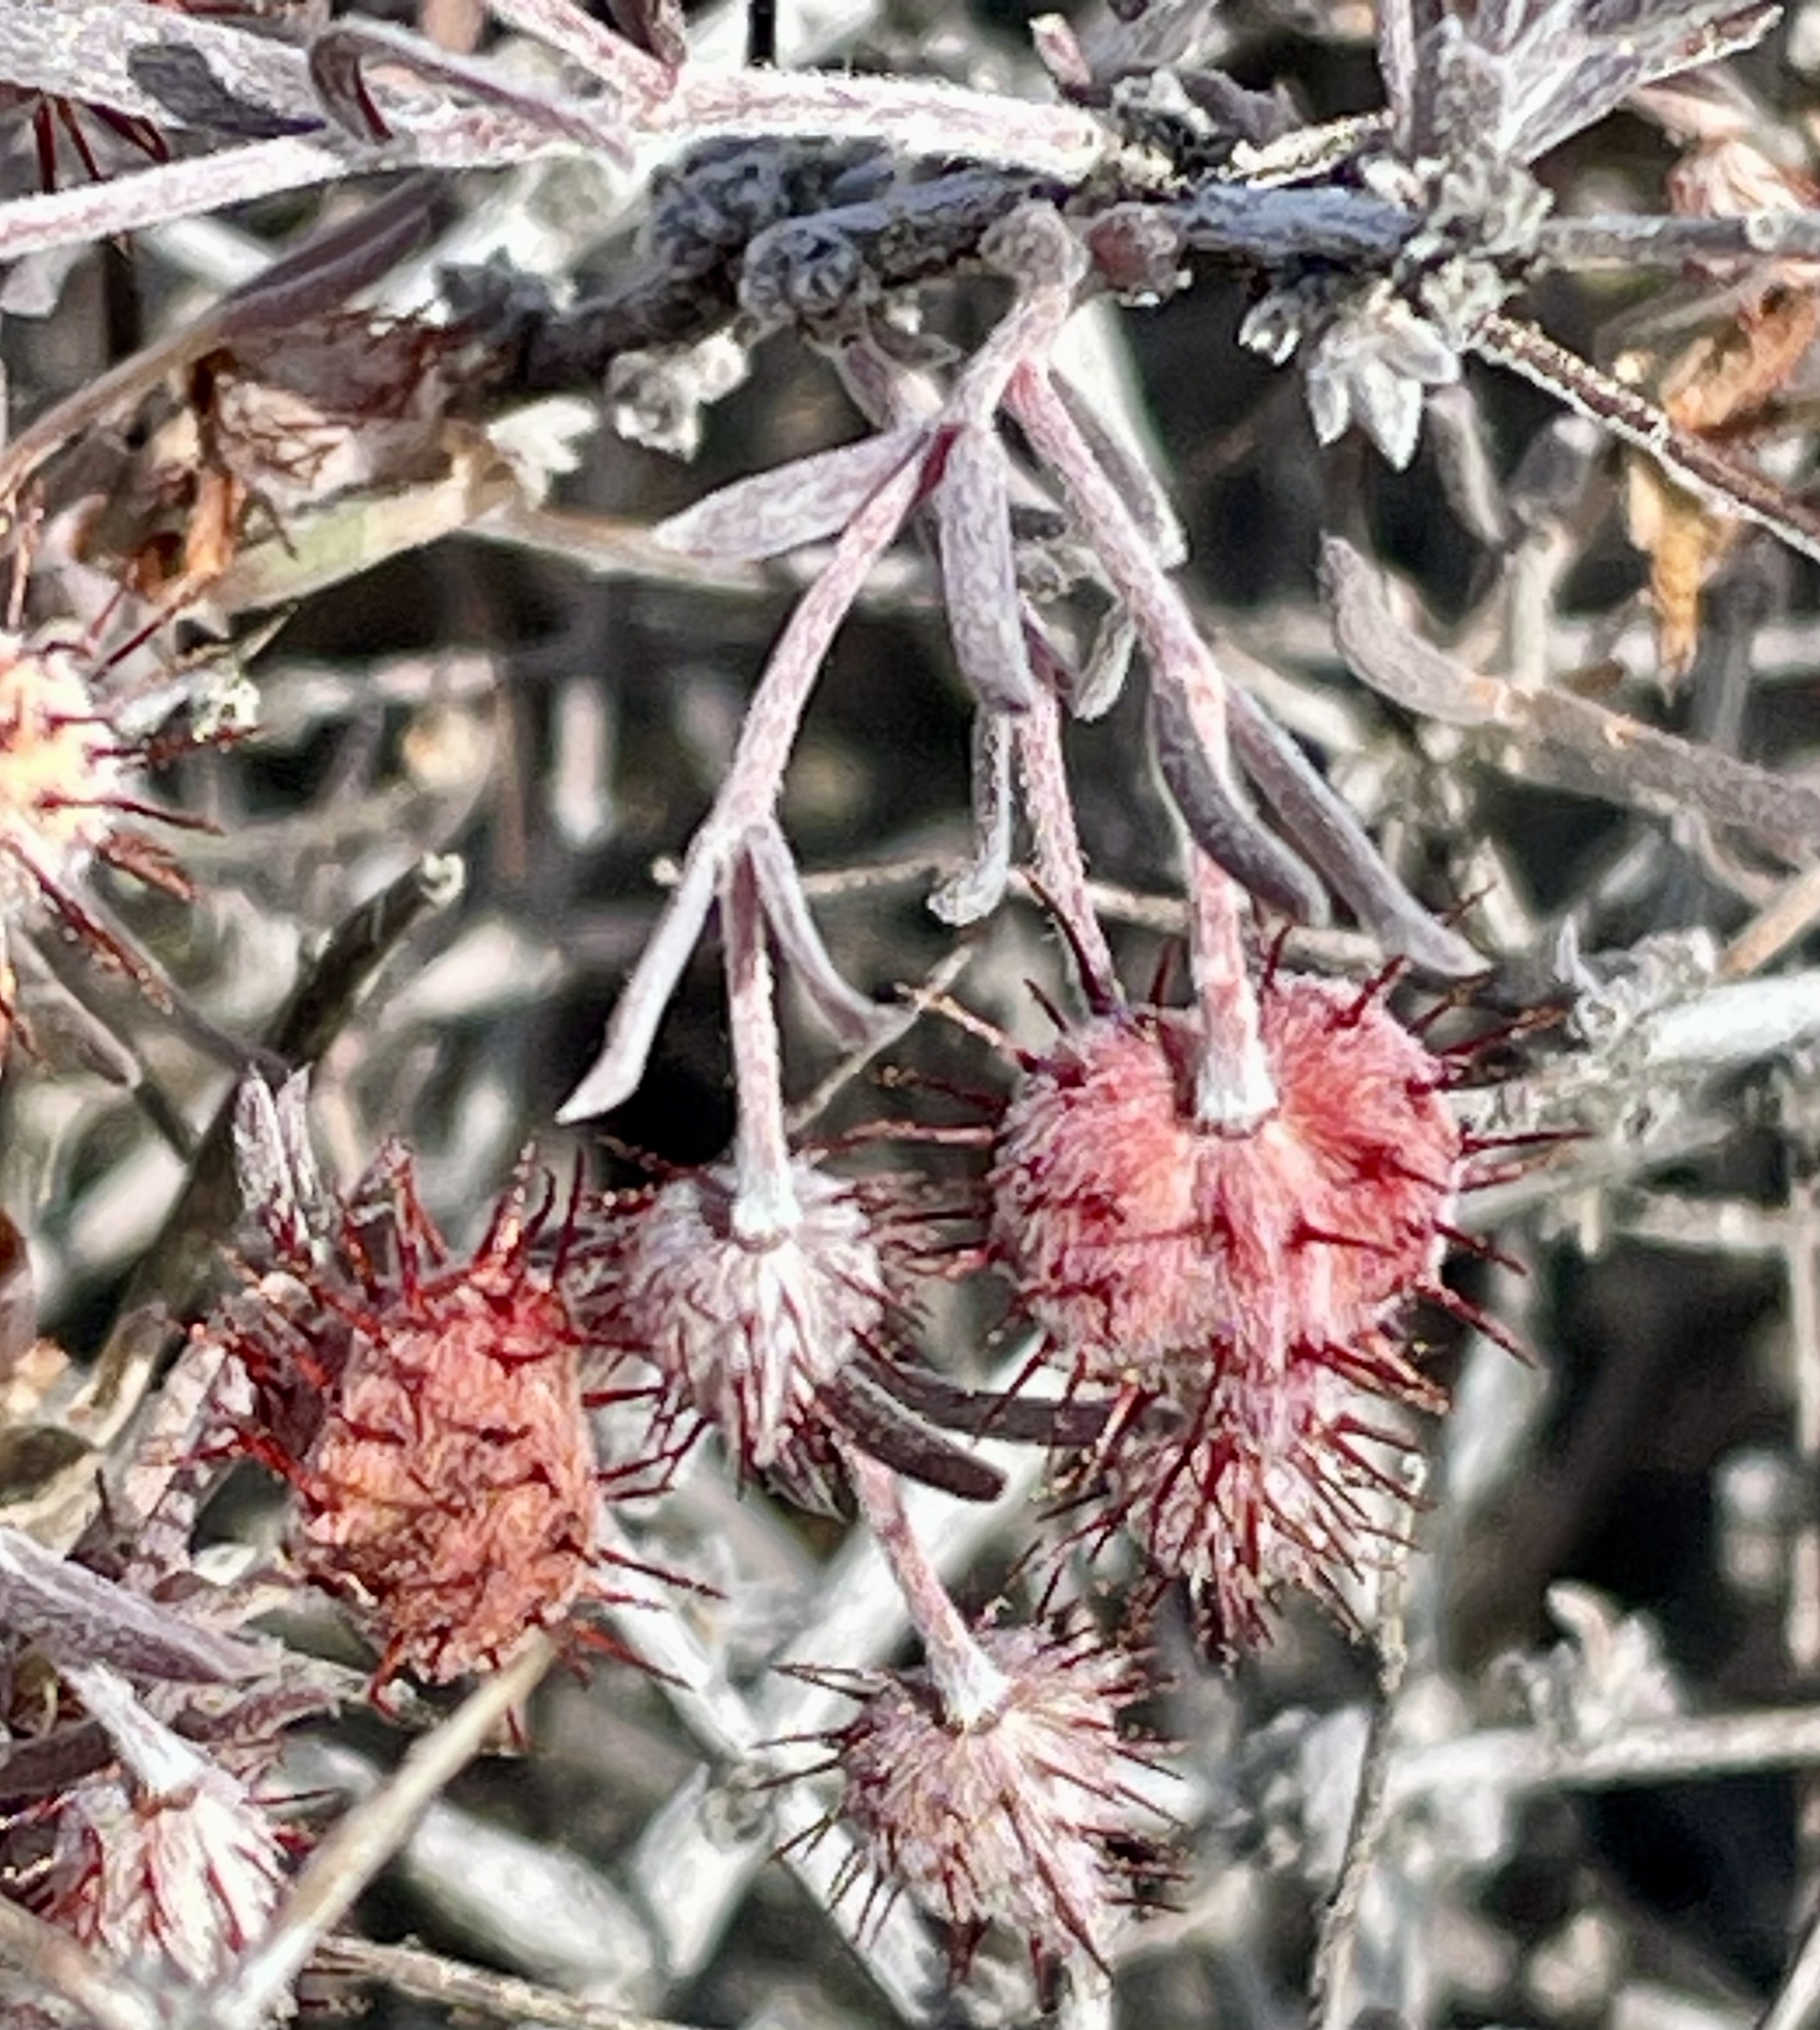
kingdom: Plantae
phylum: Tracheophyta
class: Magnoliopsida
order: Zygophyllales
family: Krameriaceae
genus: Krameria
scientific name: Krameria erecta
